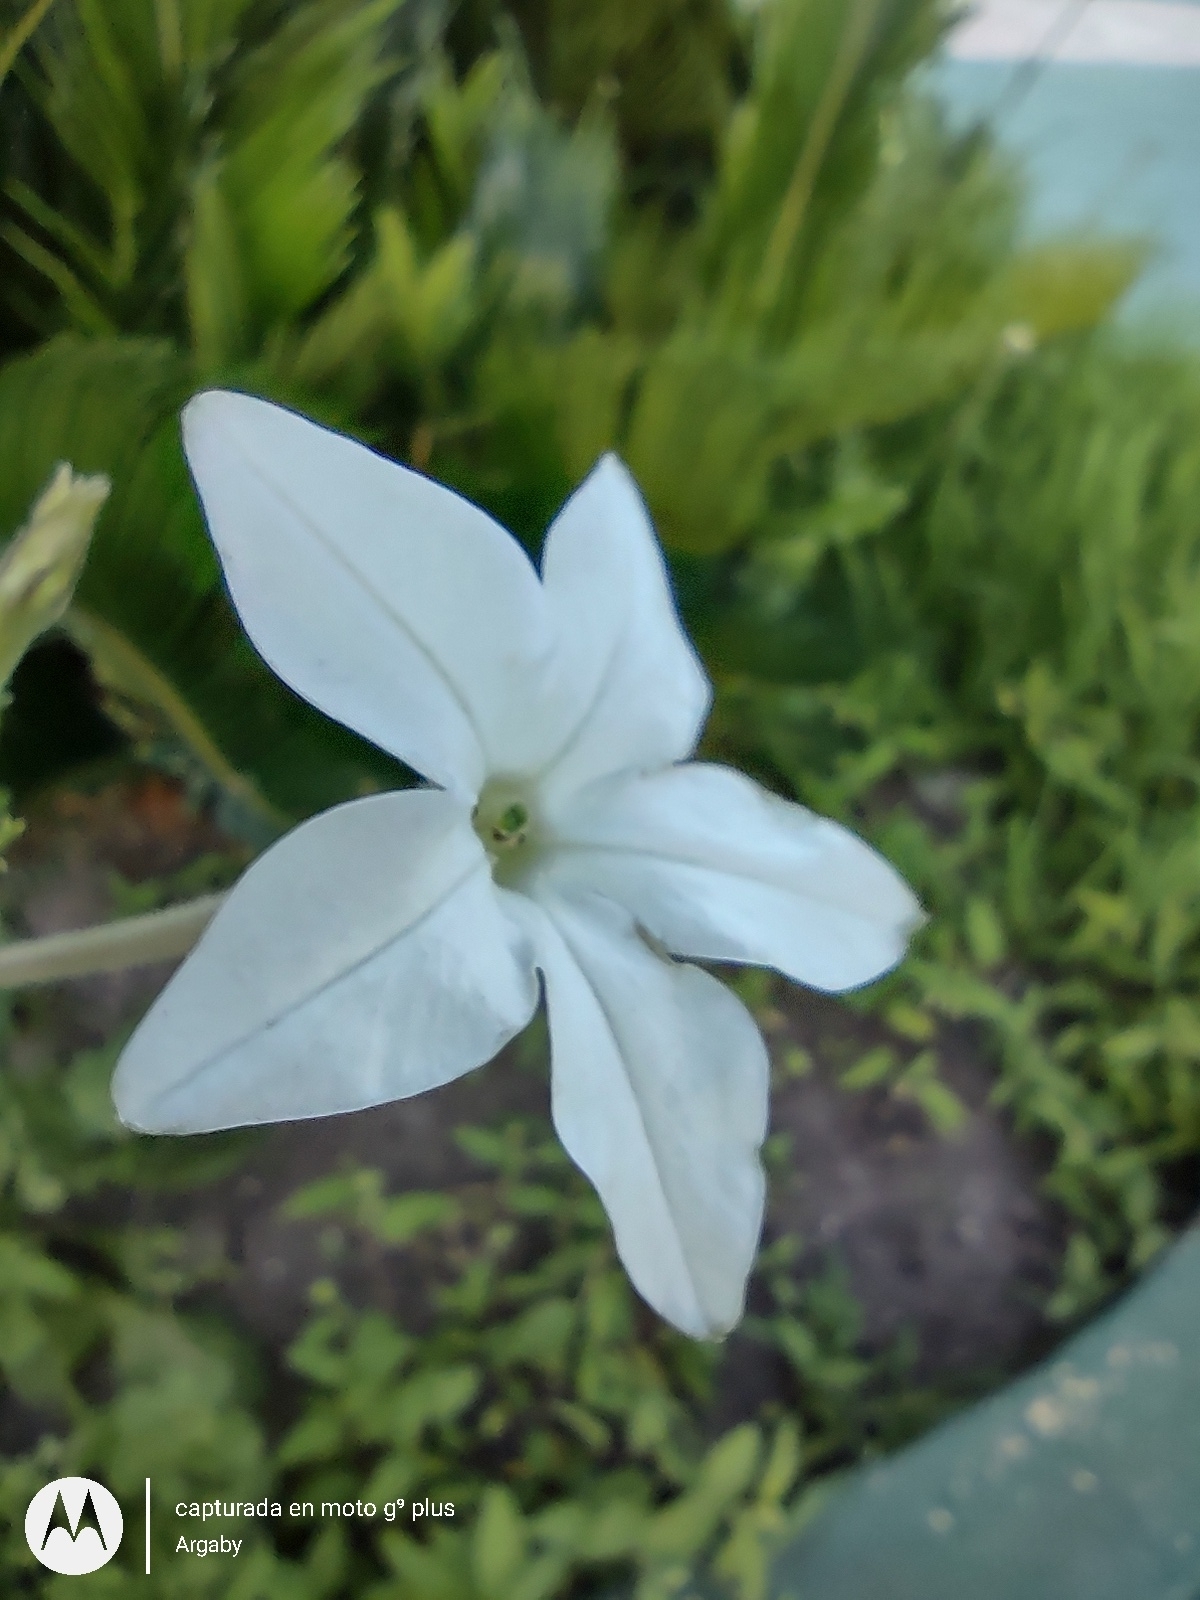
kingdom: Plantae
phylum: Tracheophyta
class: Magnoliopsida
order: Solanales
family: Solanaceae
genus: Nicotiana
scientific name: Nicotiana longiflora
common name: Long-flowered tobacco
